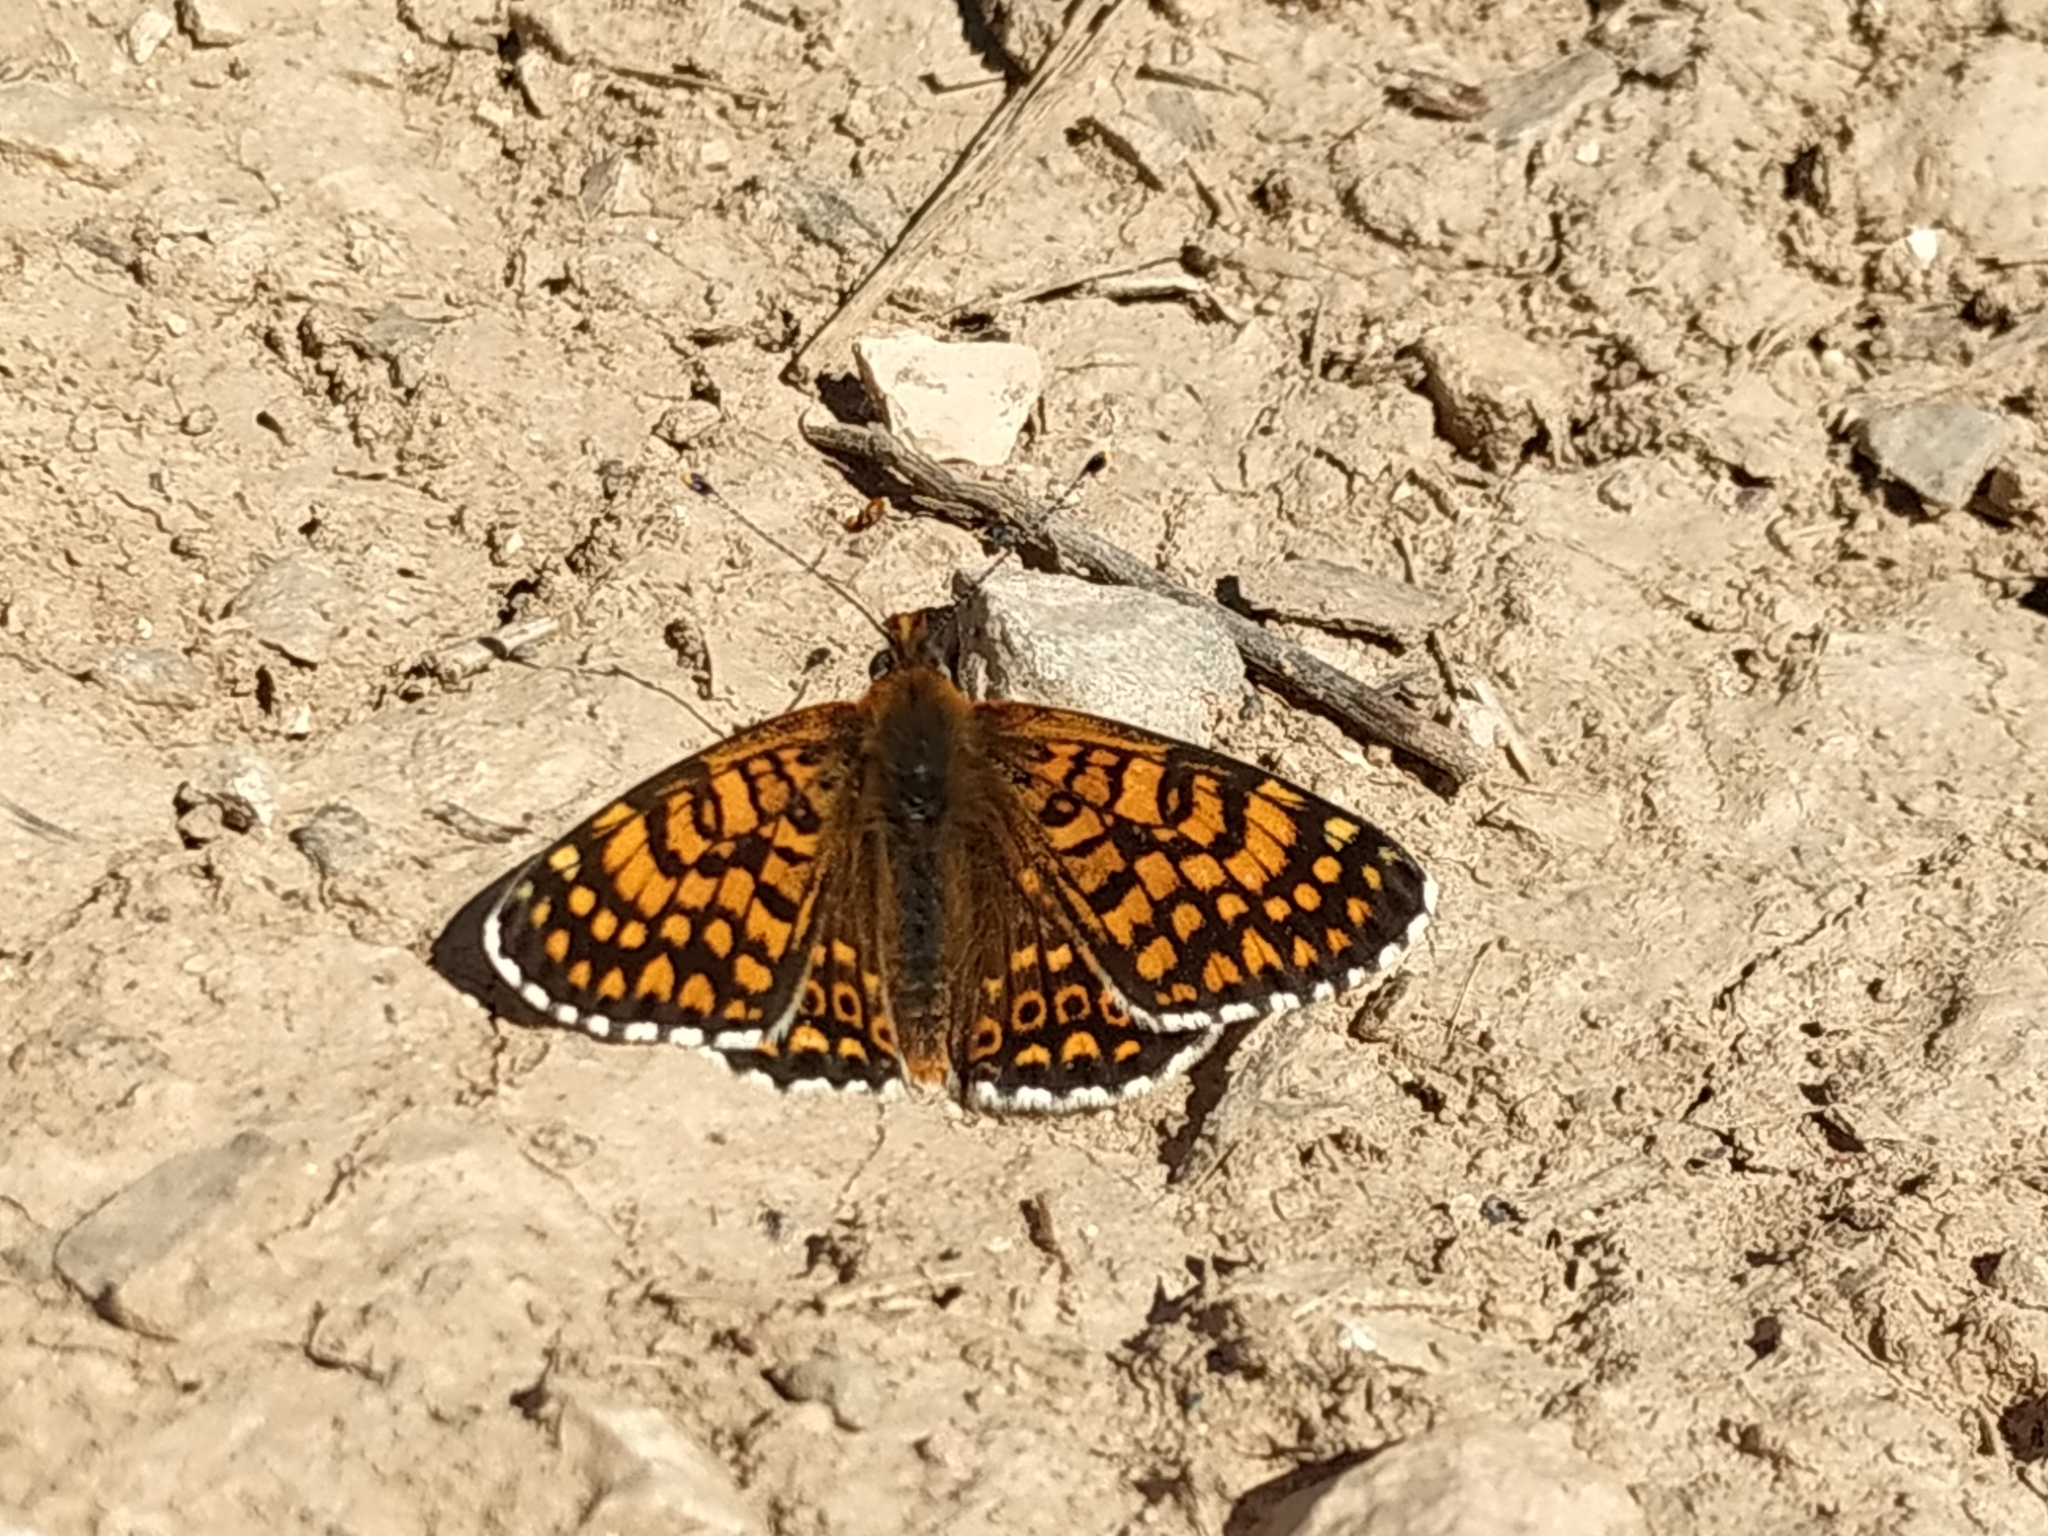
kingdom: Animalia
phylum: Arthropoda
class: Insecta
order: Lepidoptera
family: Nymphalidae
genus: Melitaea
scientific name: Melitaea cinxia
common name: Glanville fritillary
